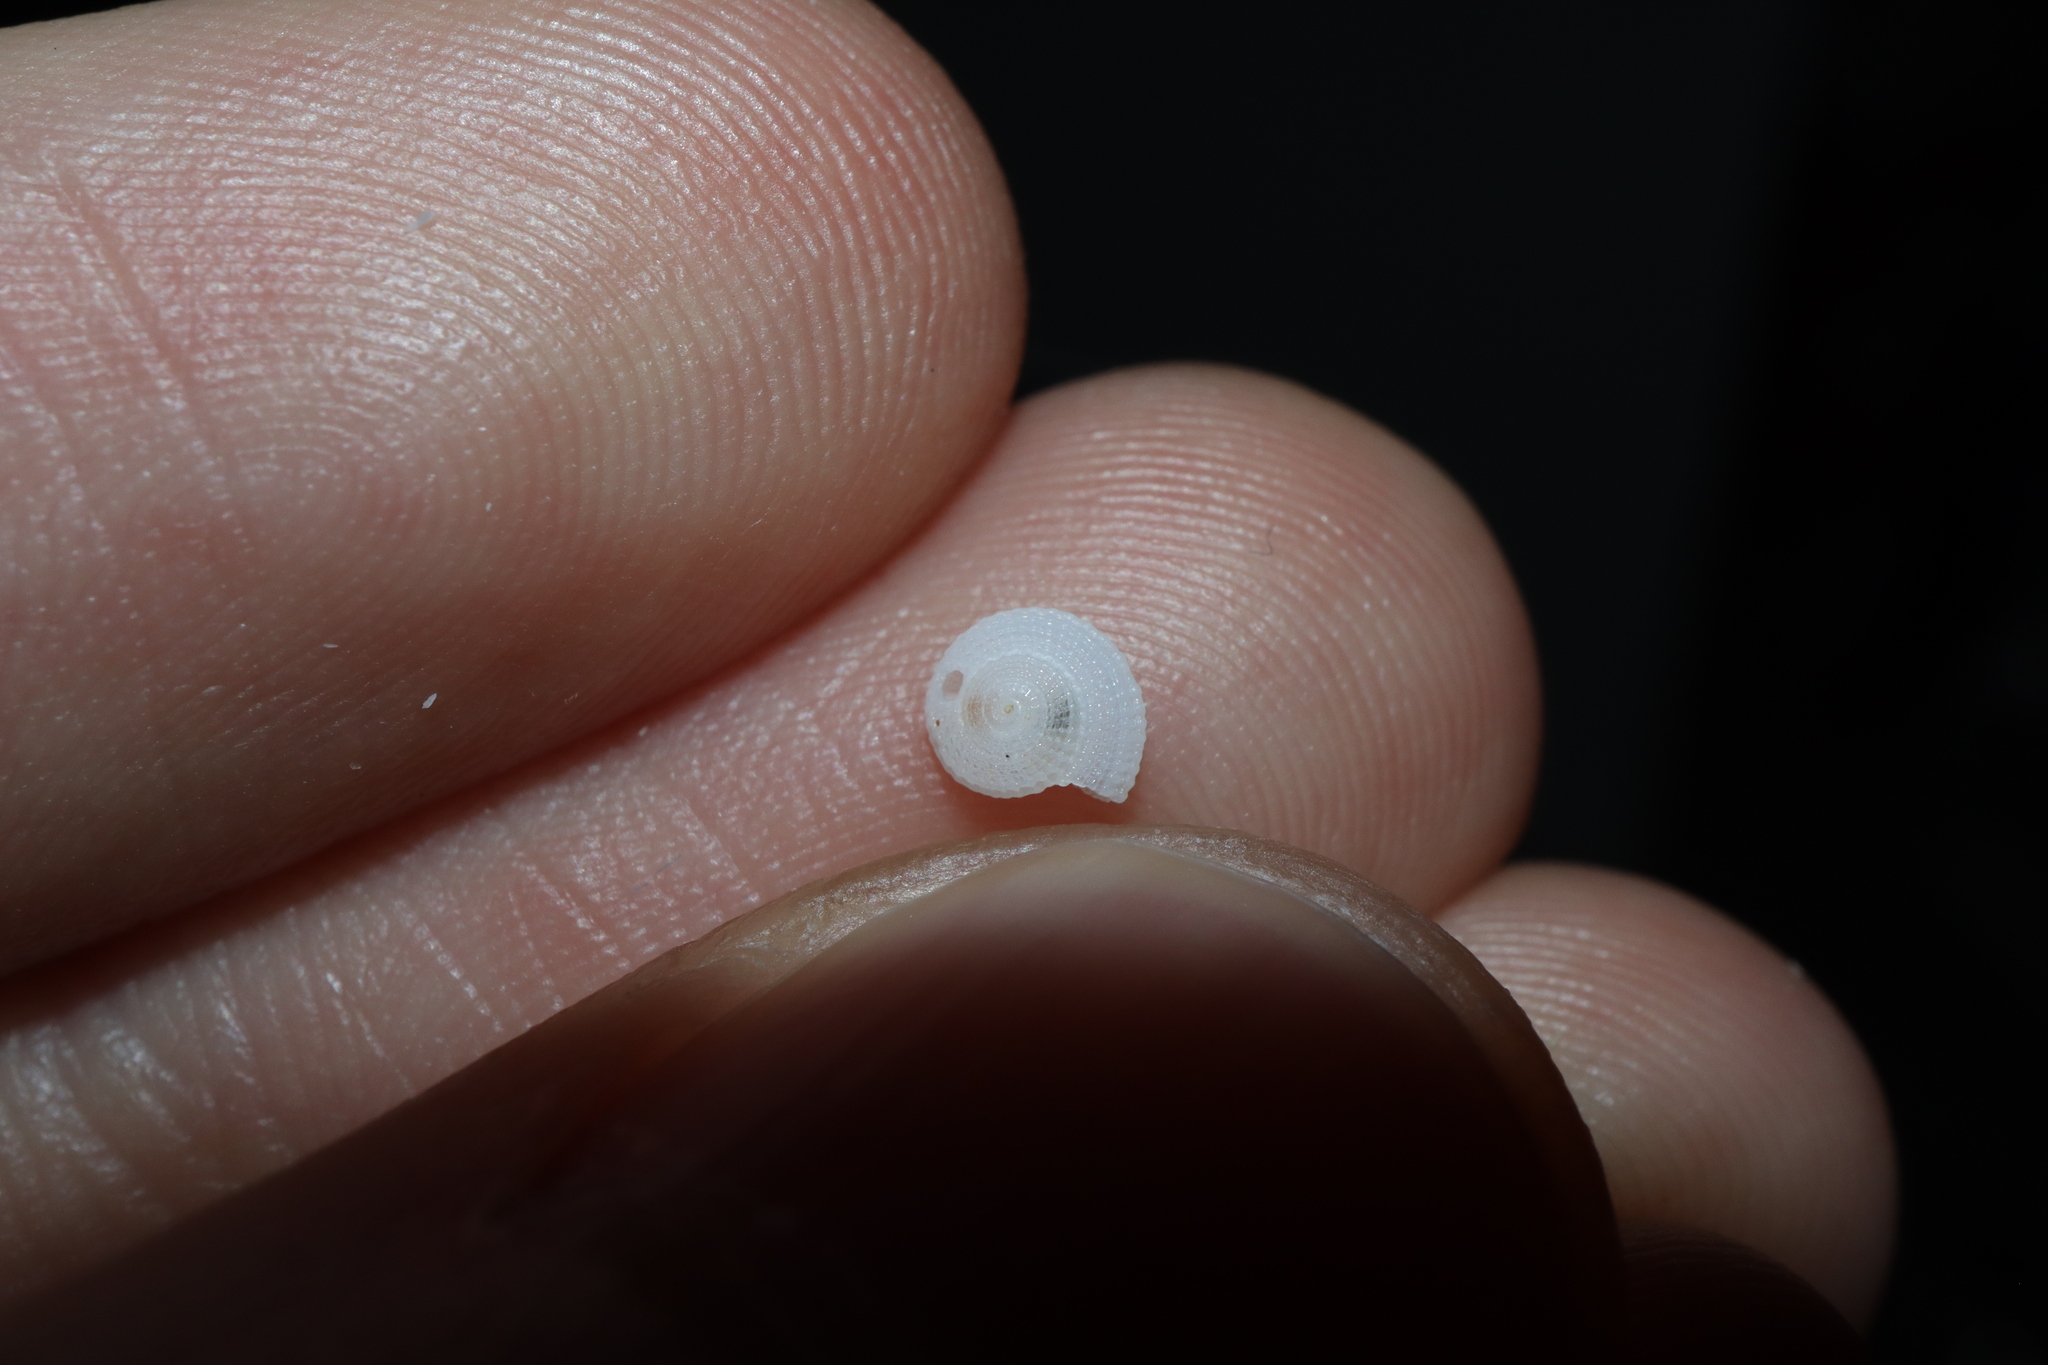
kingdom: Animalia
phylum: Mollusca
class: Gastropoda
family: Architectonicidae
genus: Pseudotorinia
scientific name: Pseudotorinia delectabilis
